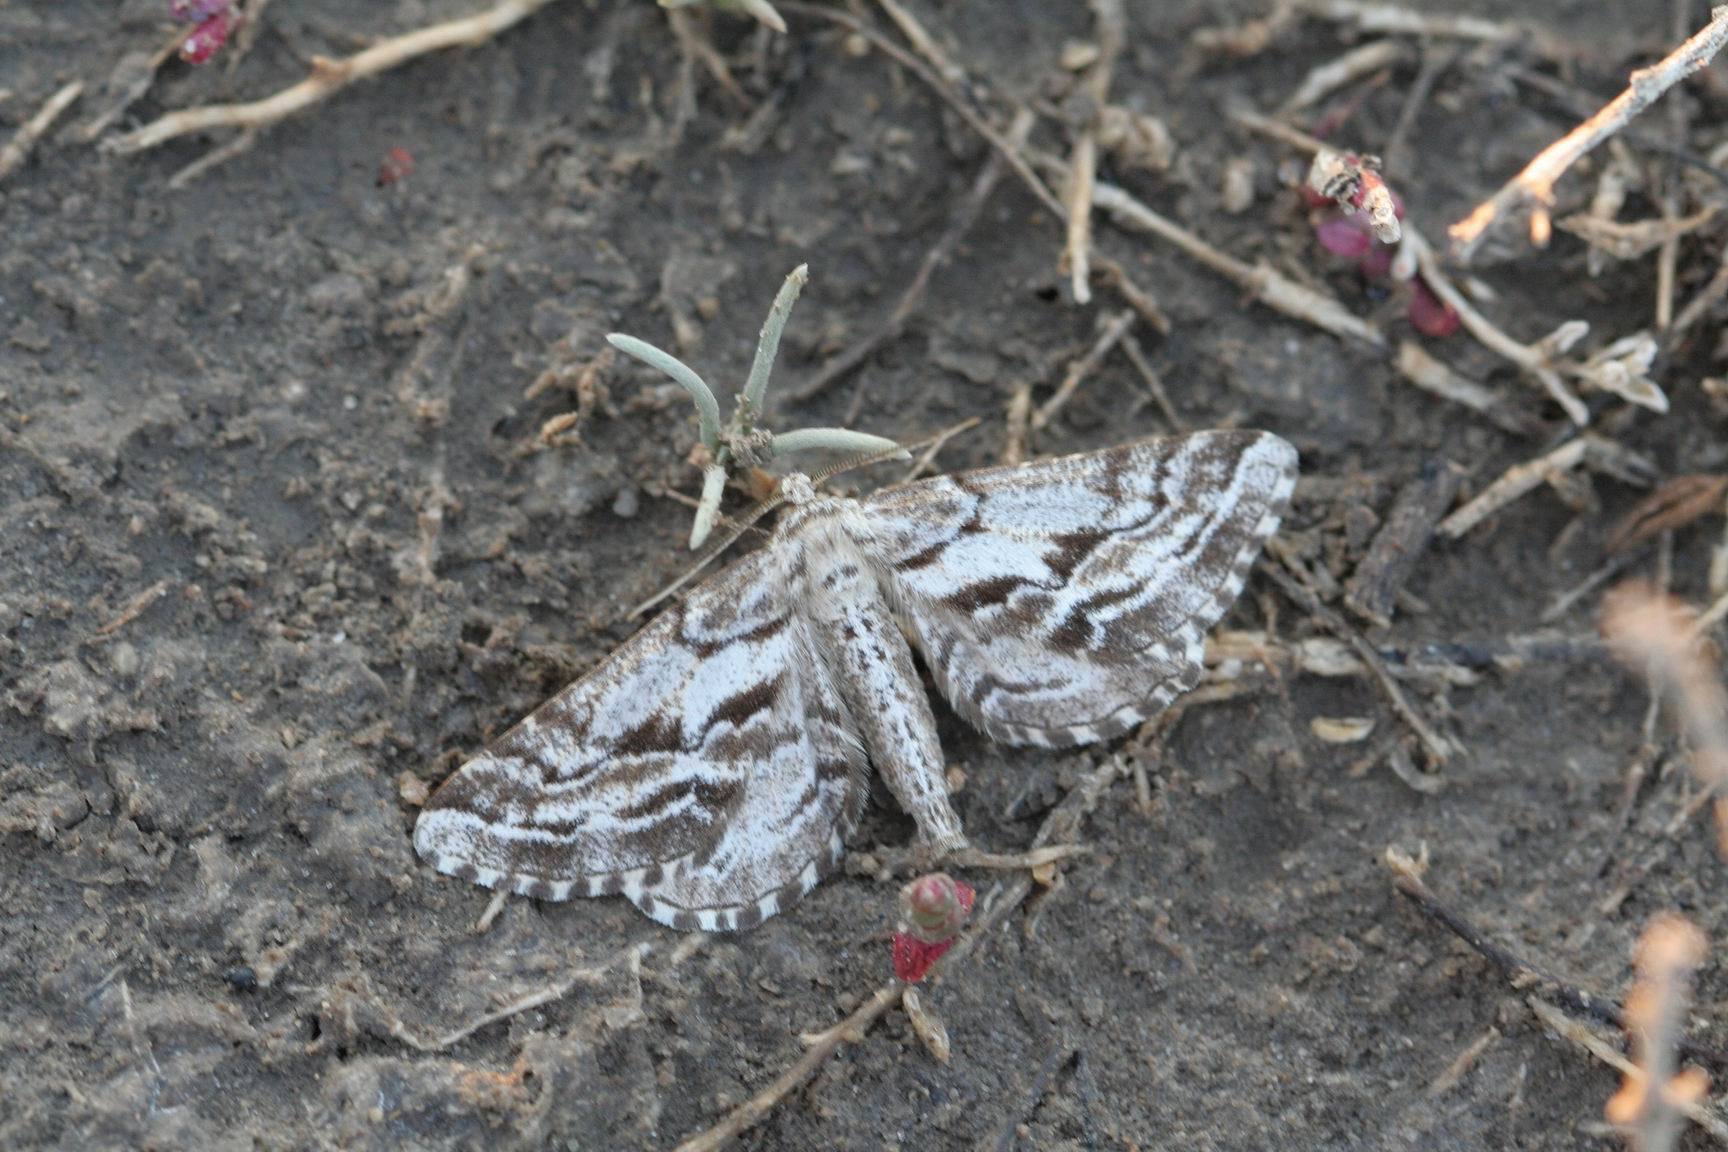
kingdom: Animalia
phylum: Arthropoda
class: Insecta
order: Lepidoptera
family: Geometridae
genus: Spartopteryx
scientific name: Spartopteryx kindermannaria
